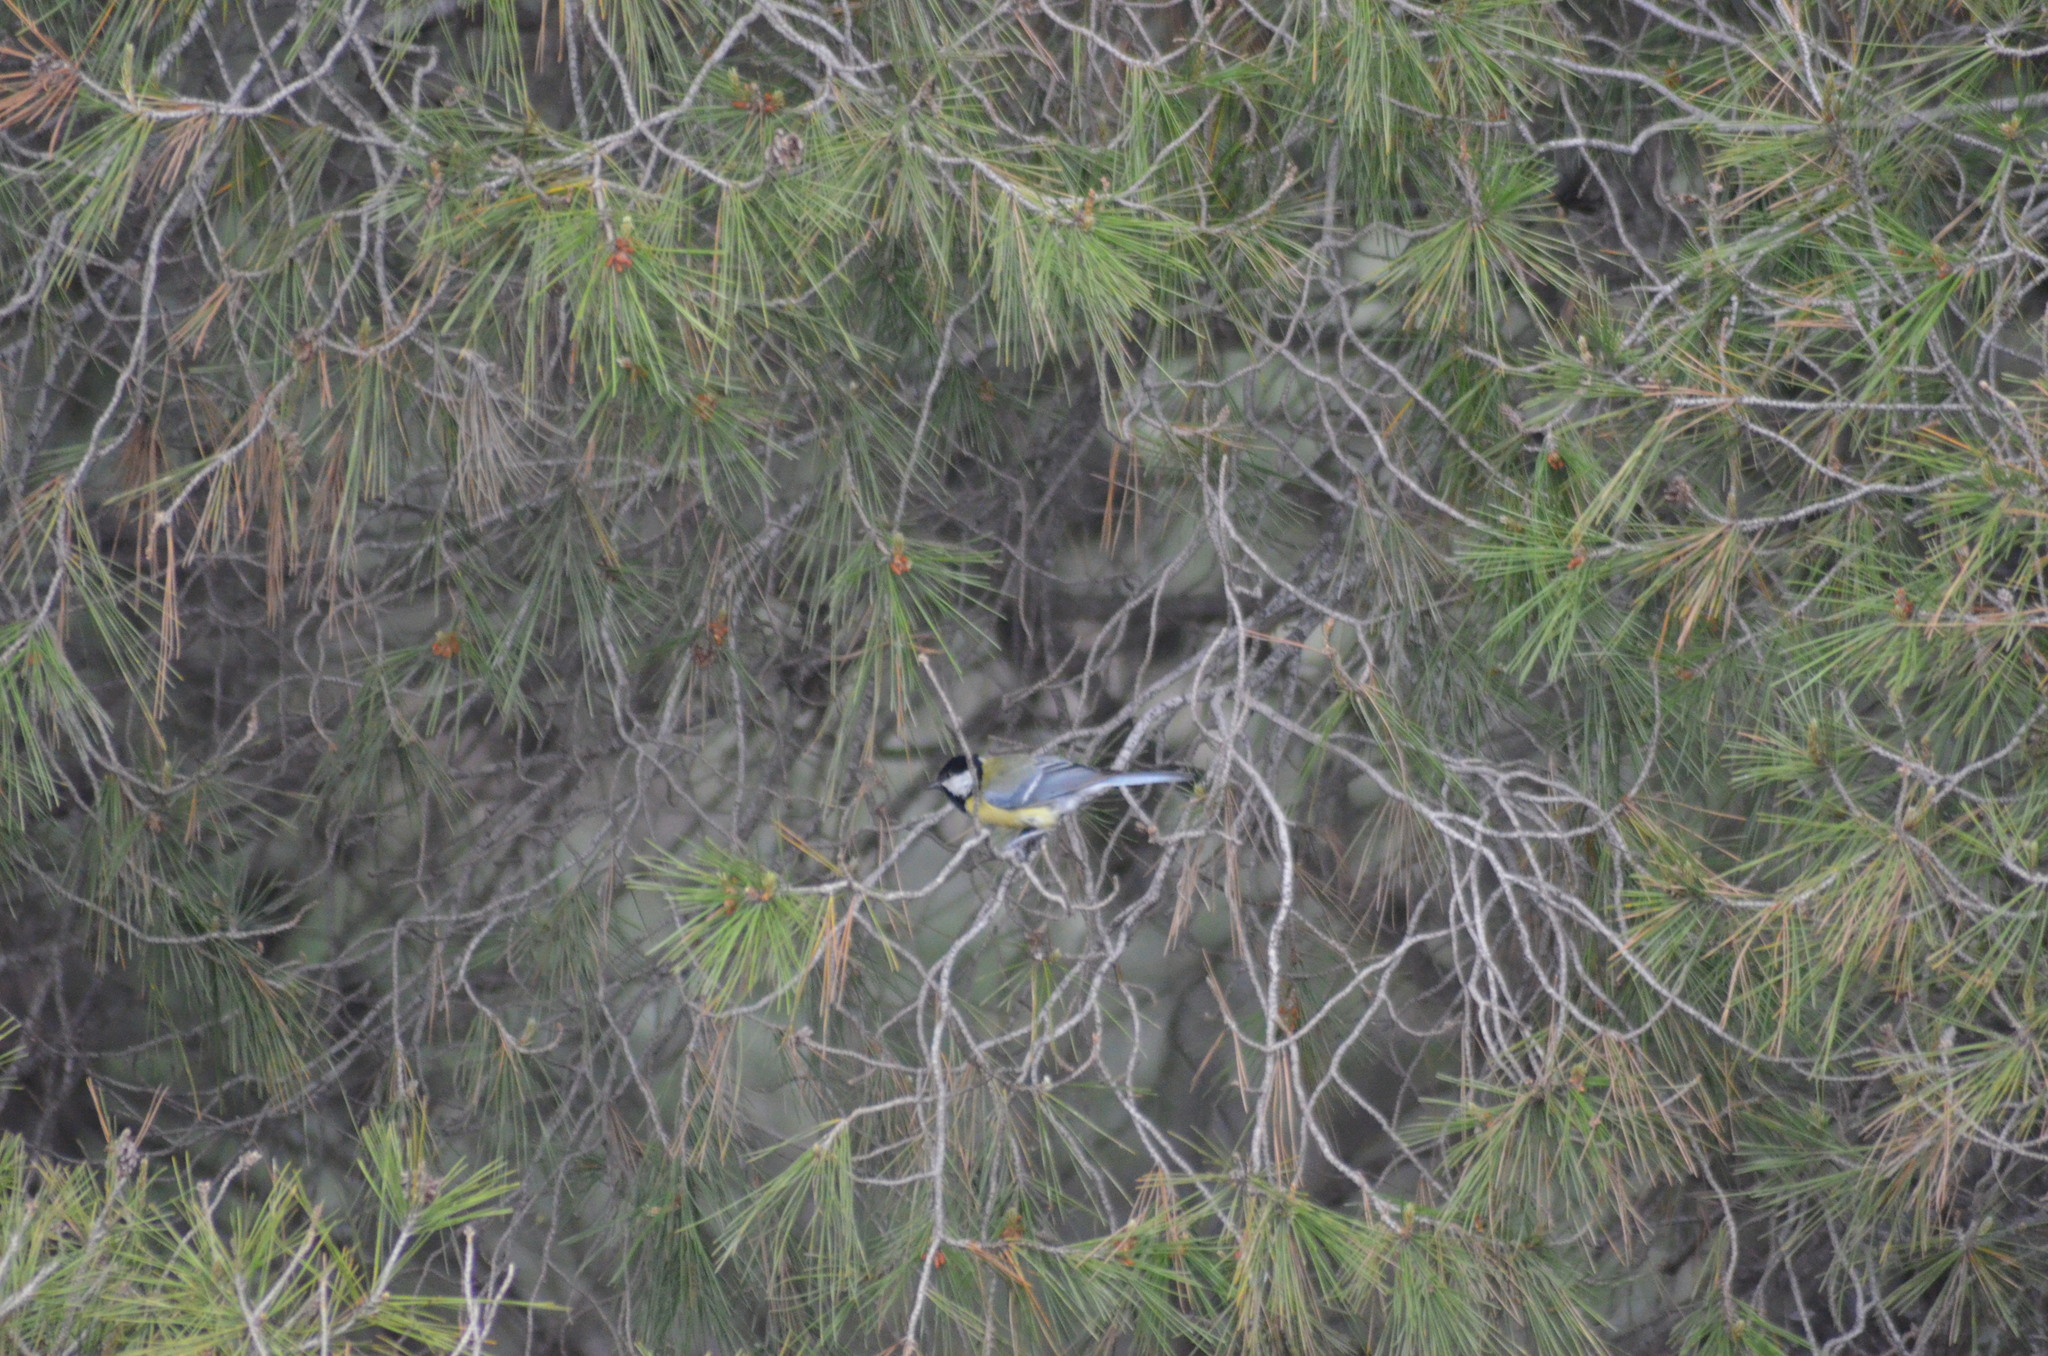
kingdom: Animalia
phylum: Chordata
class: Aves
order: Passeriformes
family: Paridae
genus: Parus
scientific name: Parus major
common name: Great tit
